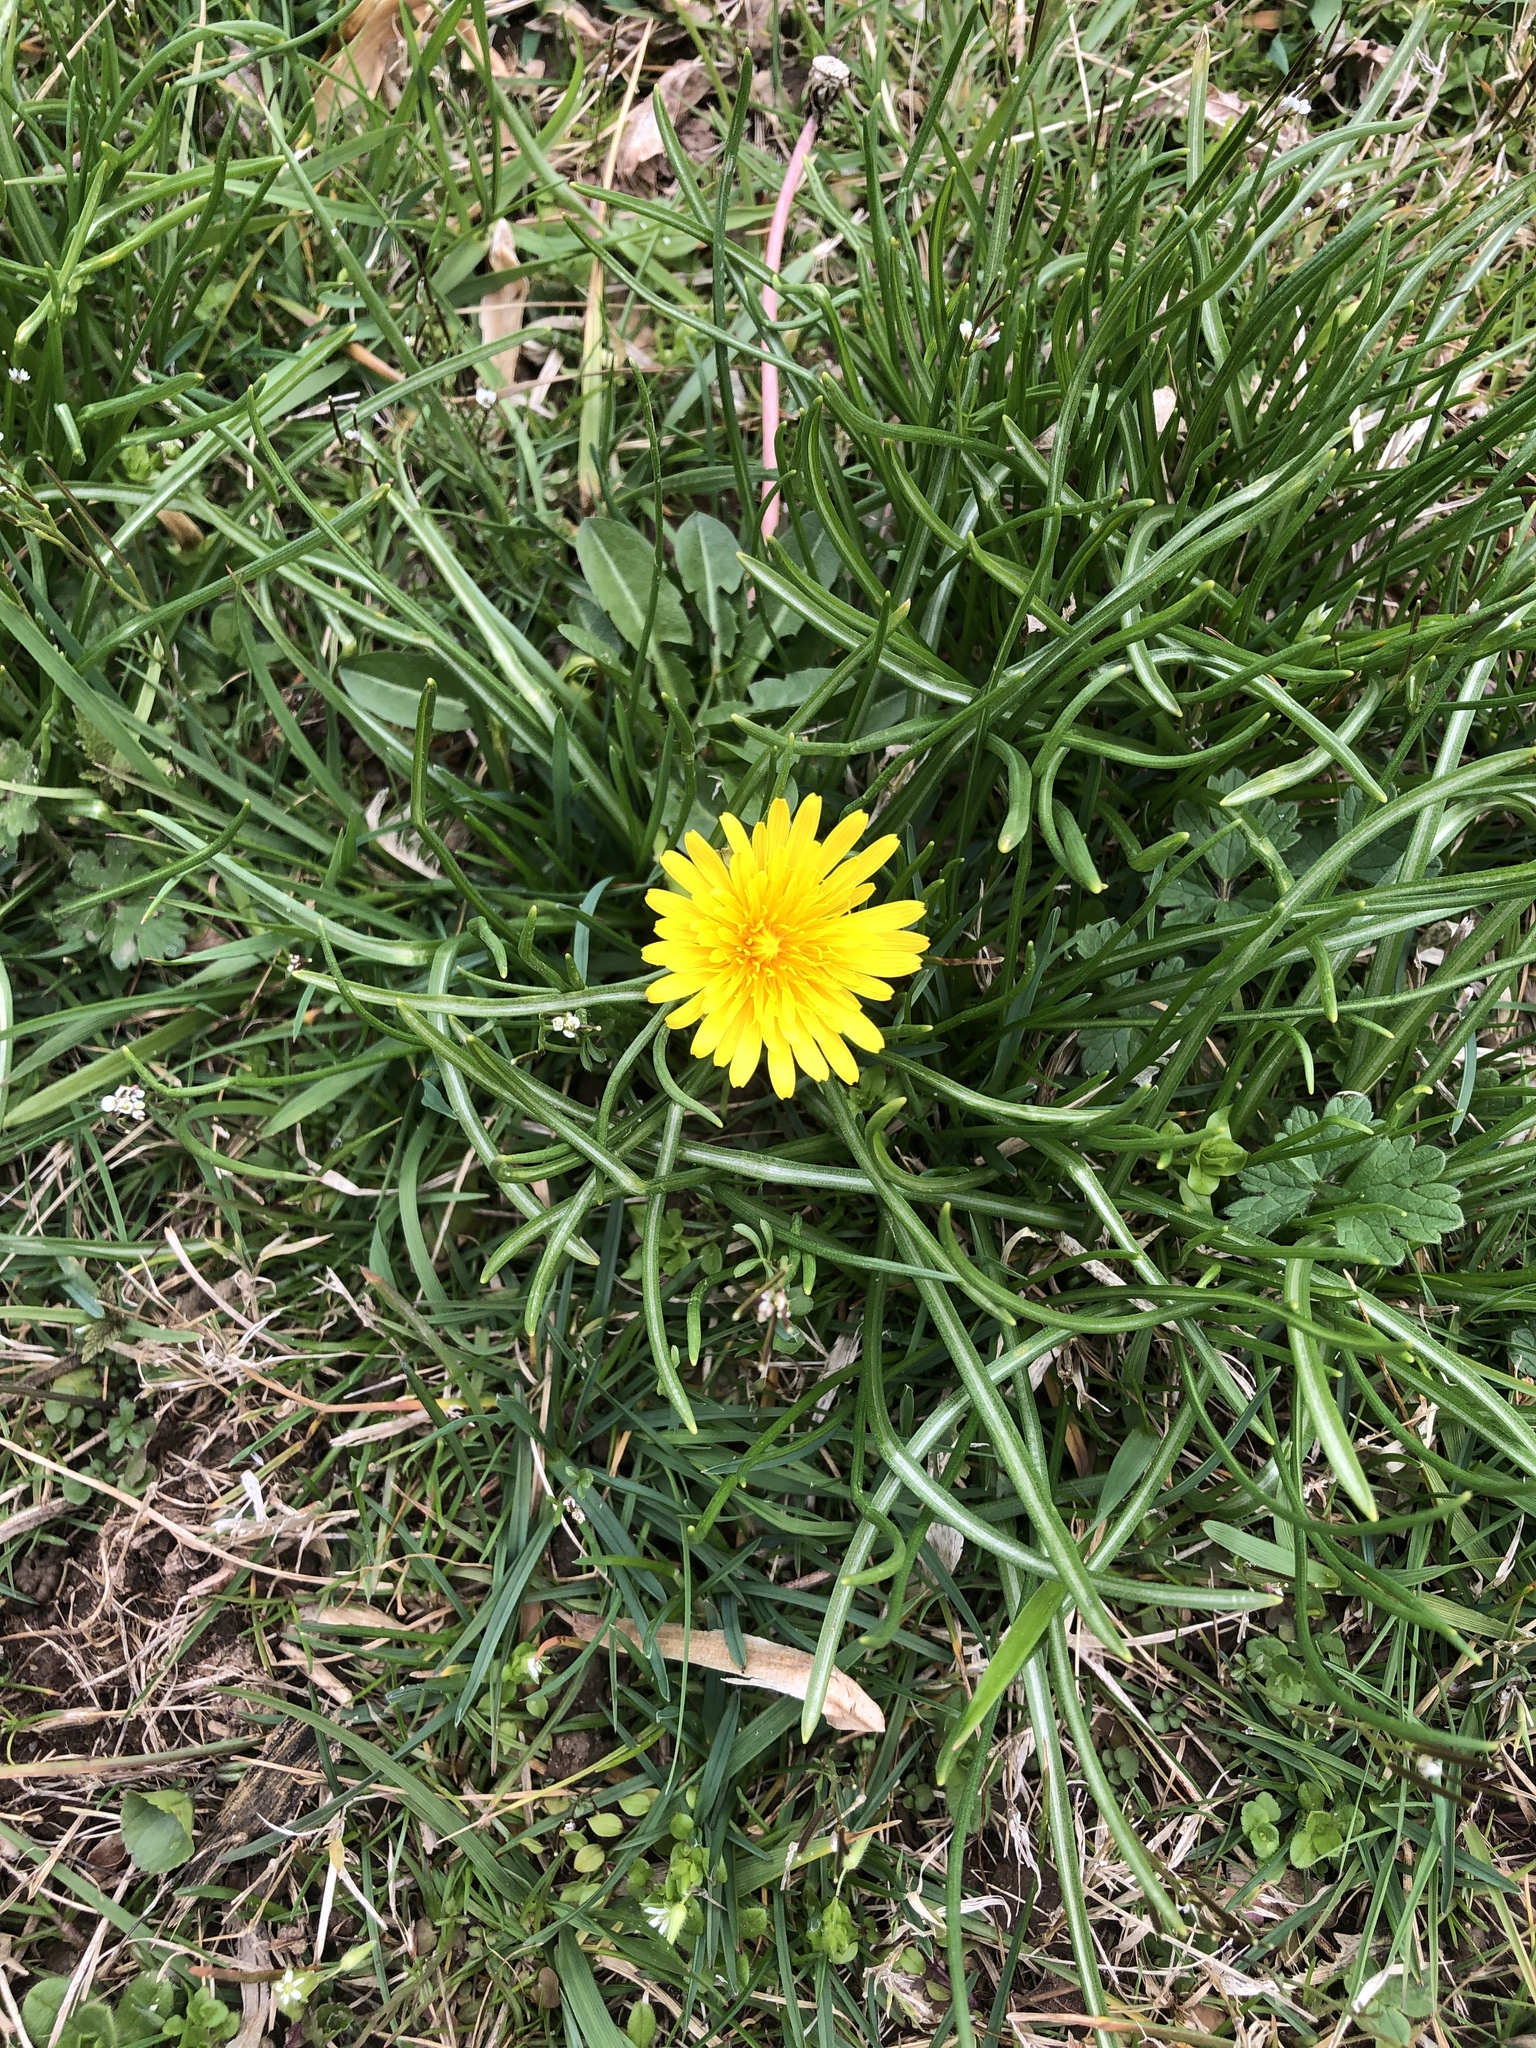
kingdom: Plantae
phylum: Tracheophyta
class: Magnoliopsida
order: Asterales
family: Asteraceae
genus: Taraxacum
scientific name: Taraxacum officinale
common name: Common dandelion
